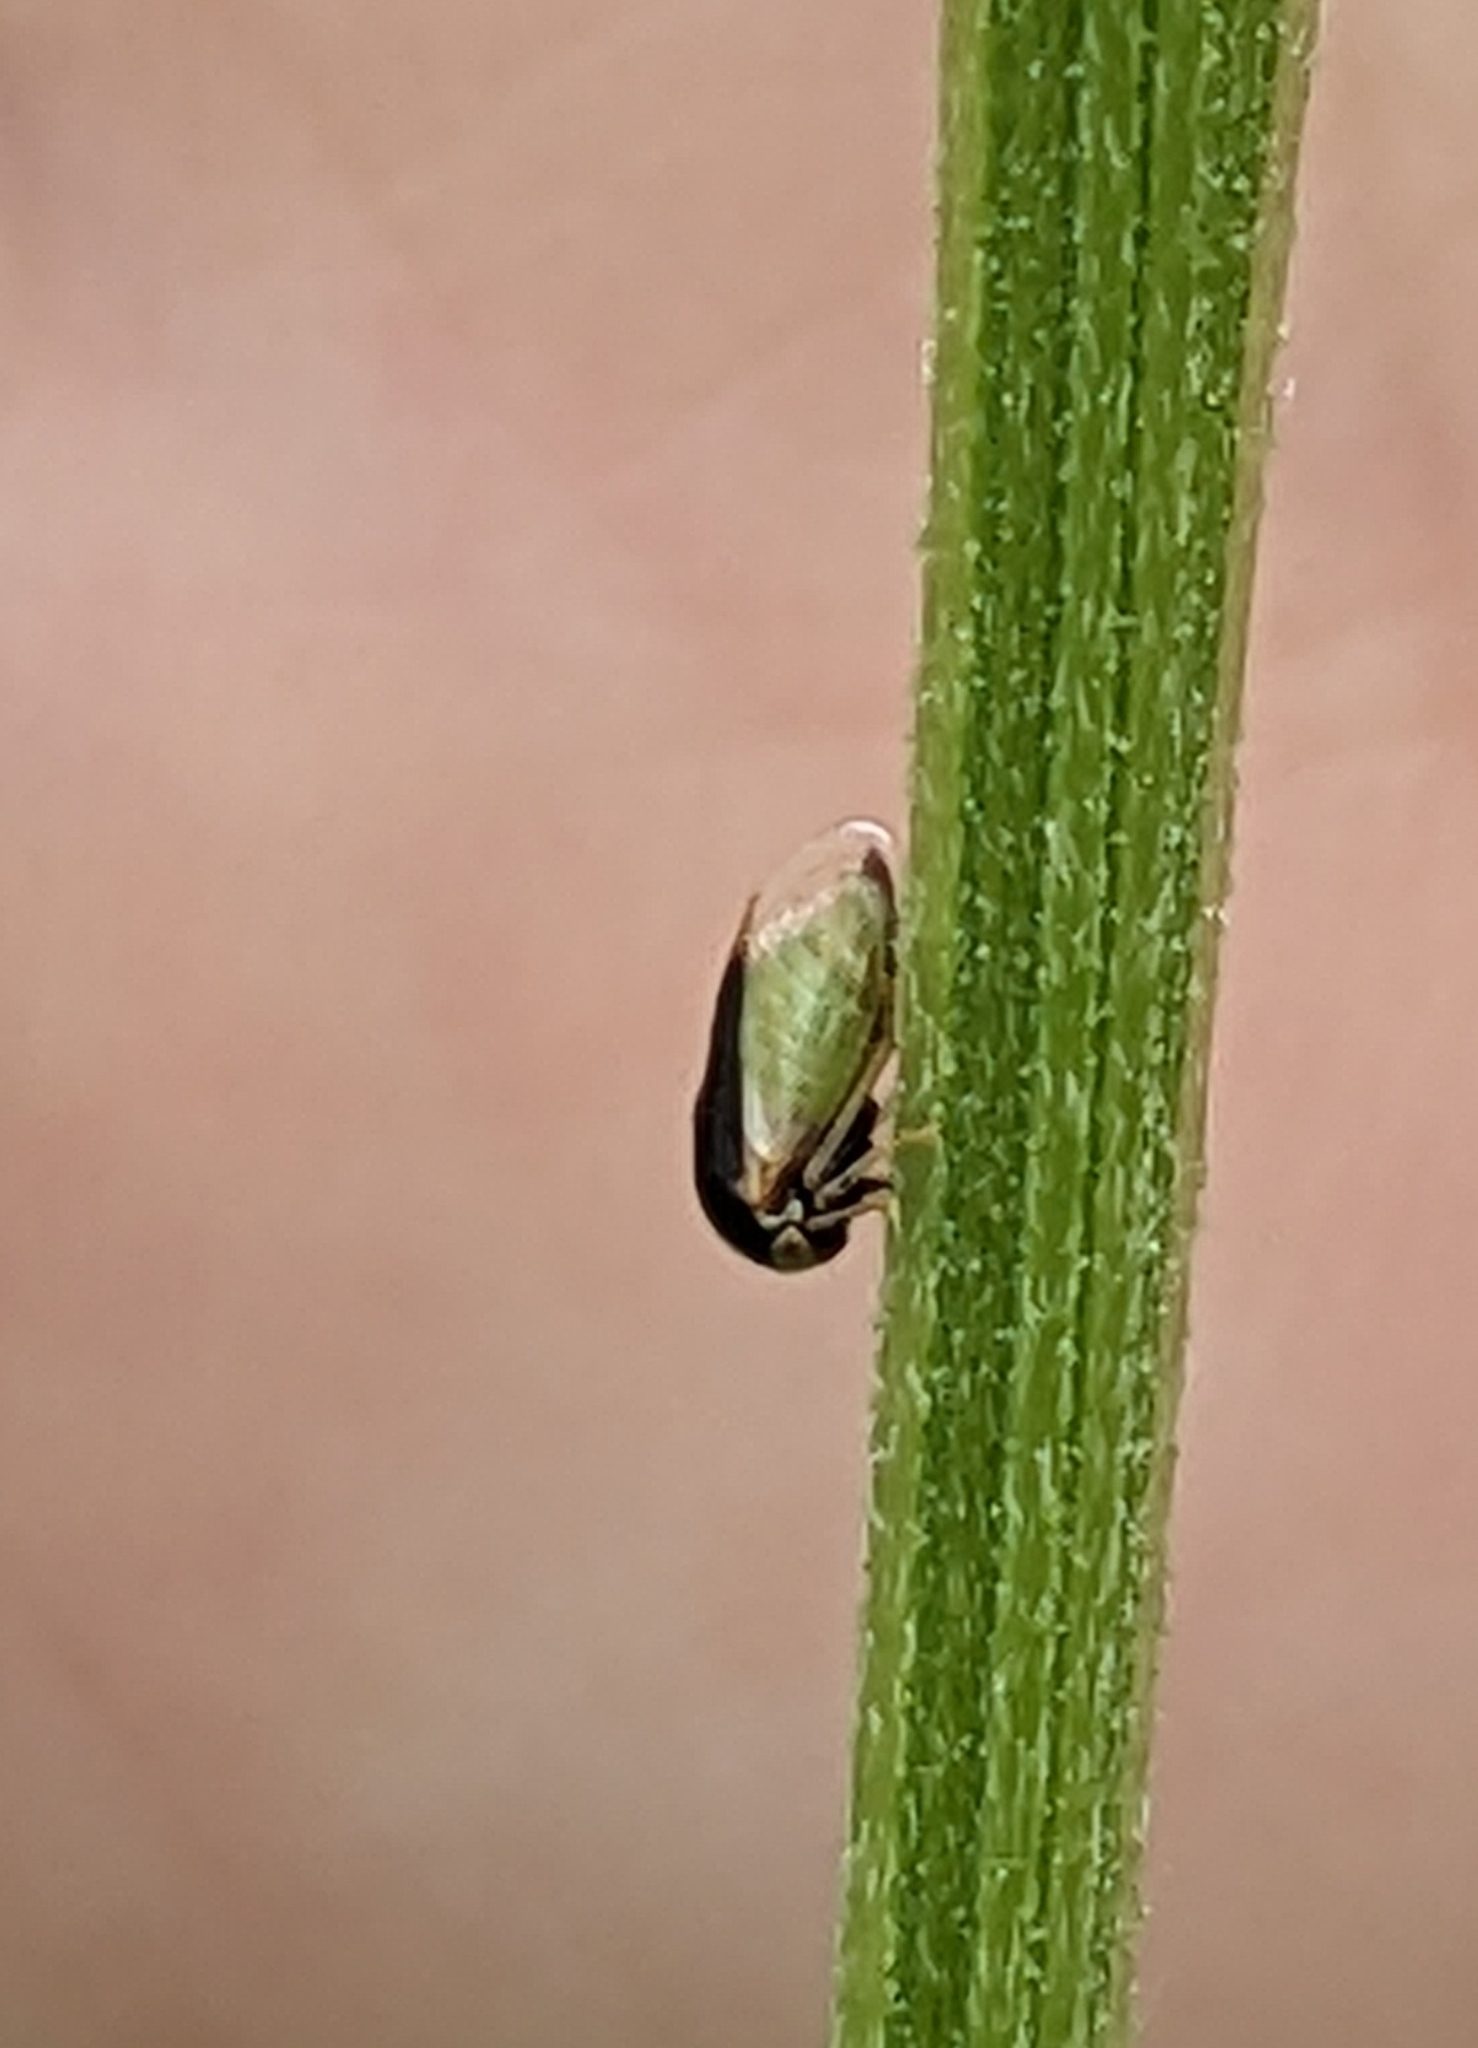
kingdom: Animalia
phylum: Arthropoda
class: Insecta
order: Hemiptera
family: Membracidae
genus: Micrutalis
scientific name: Micrutalis calva
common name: Honeylocust treehopper
